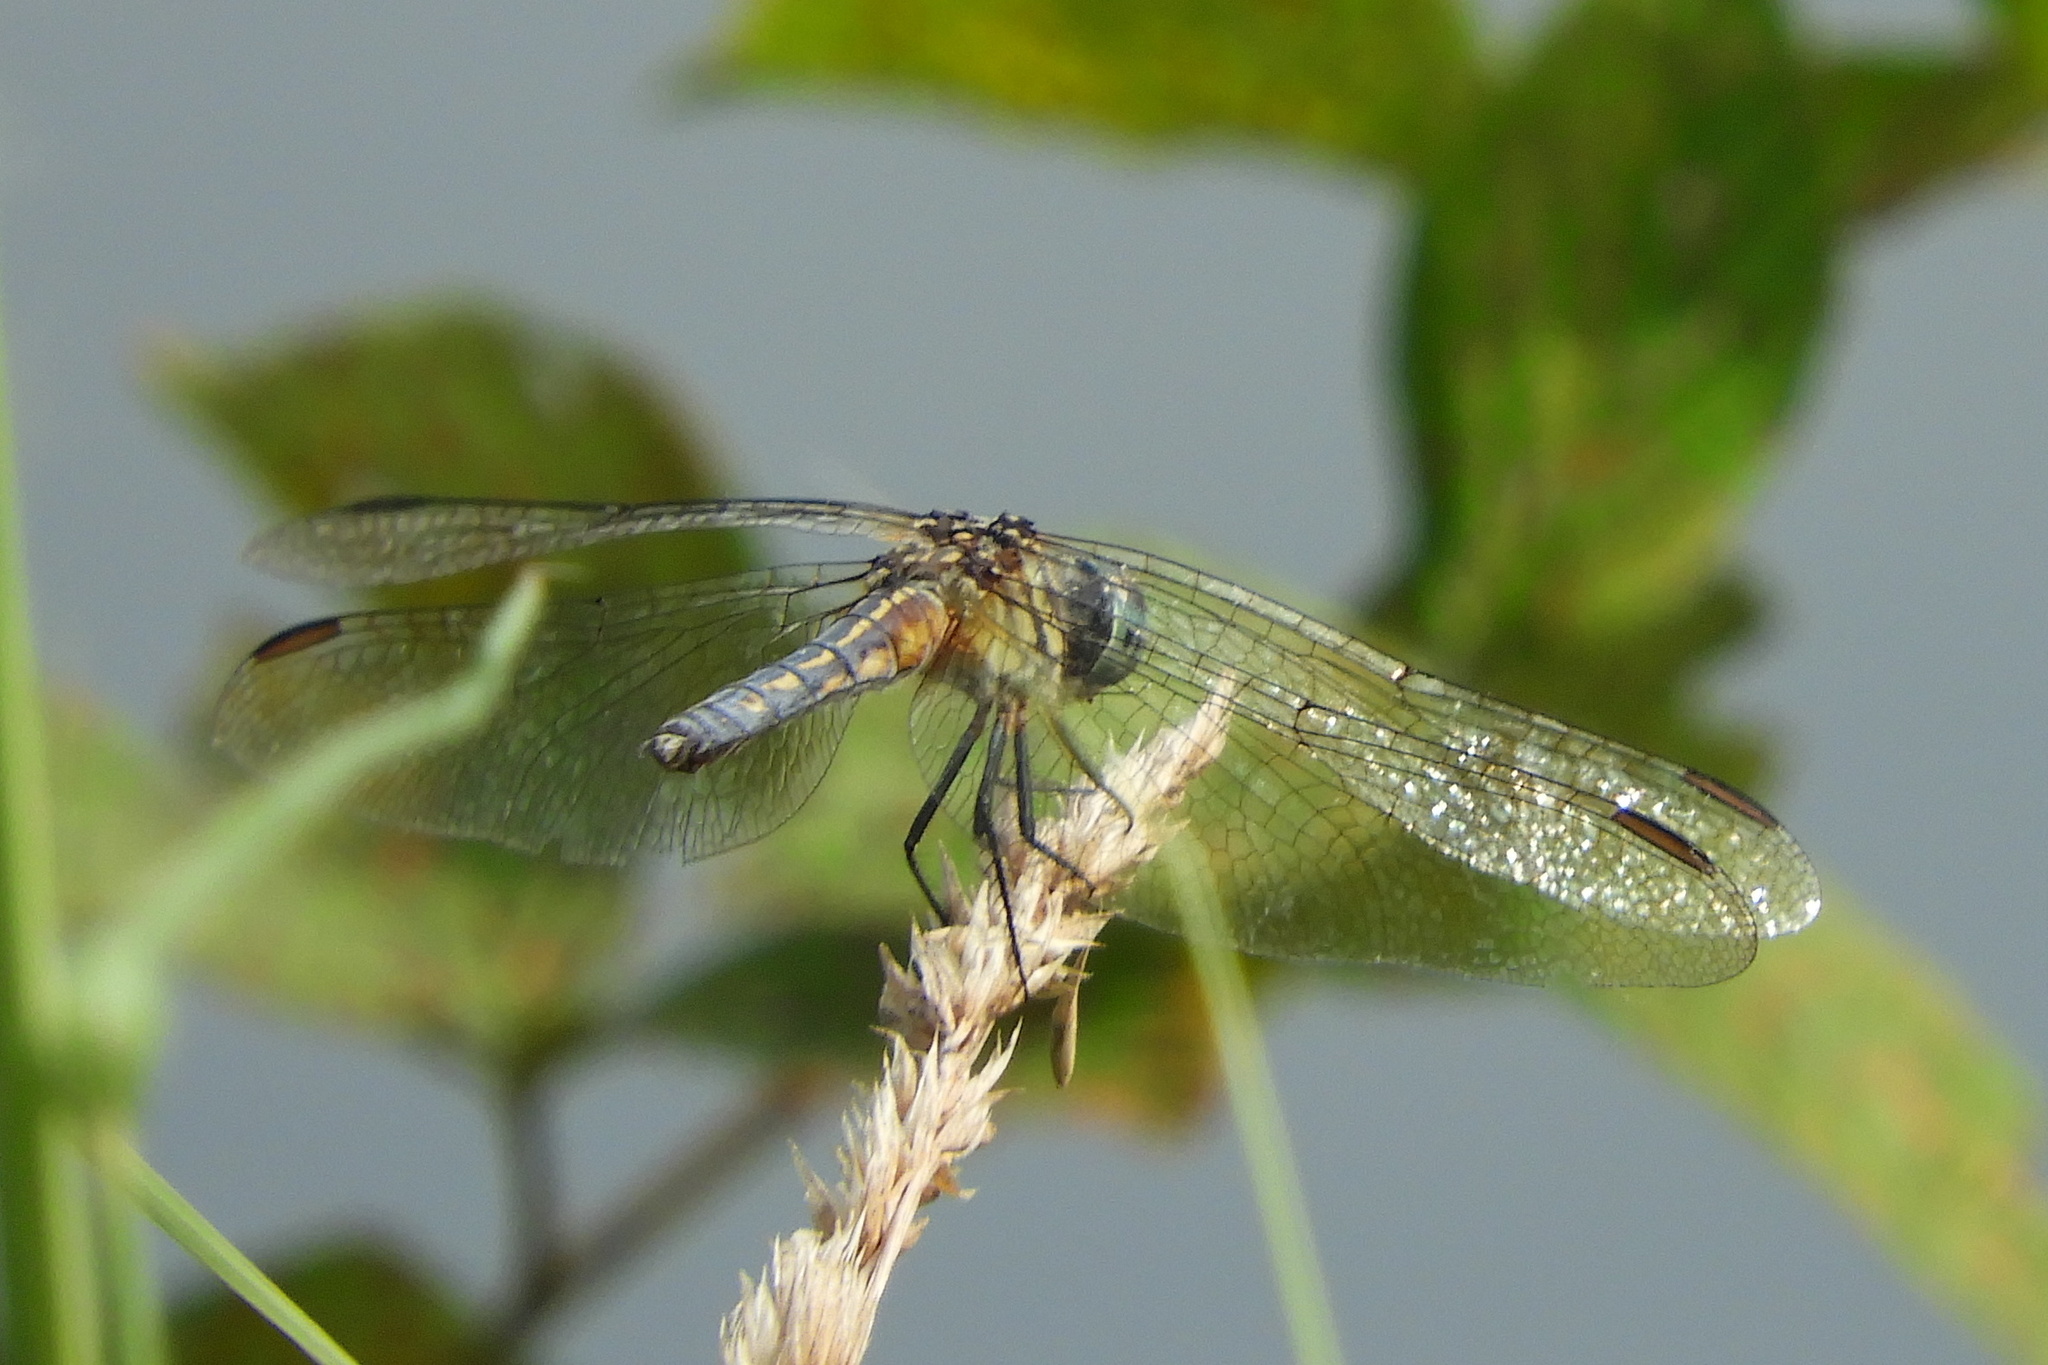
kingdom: Animalia
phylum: Arthropoda
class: Insecta
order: Odonata
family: Libellulidae
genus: Pachydiplax
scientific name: Pachydiplax longipennis
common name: Blue dasher
